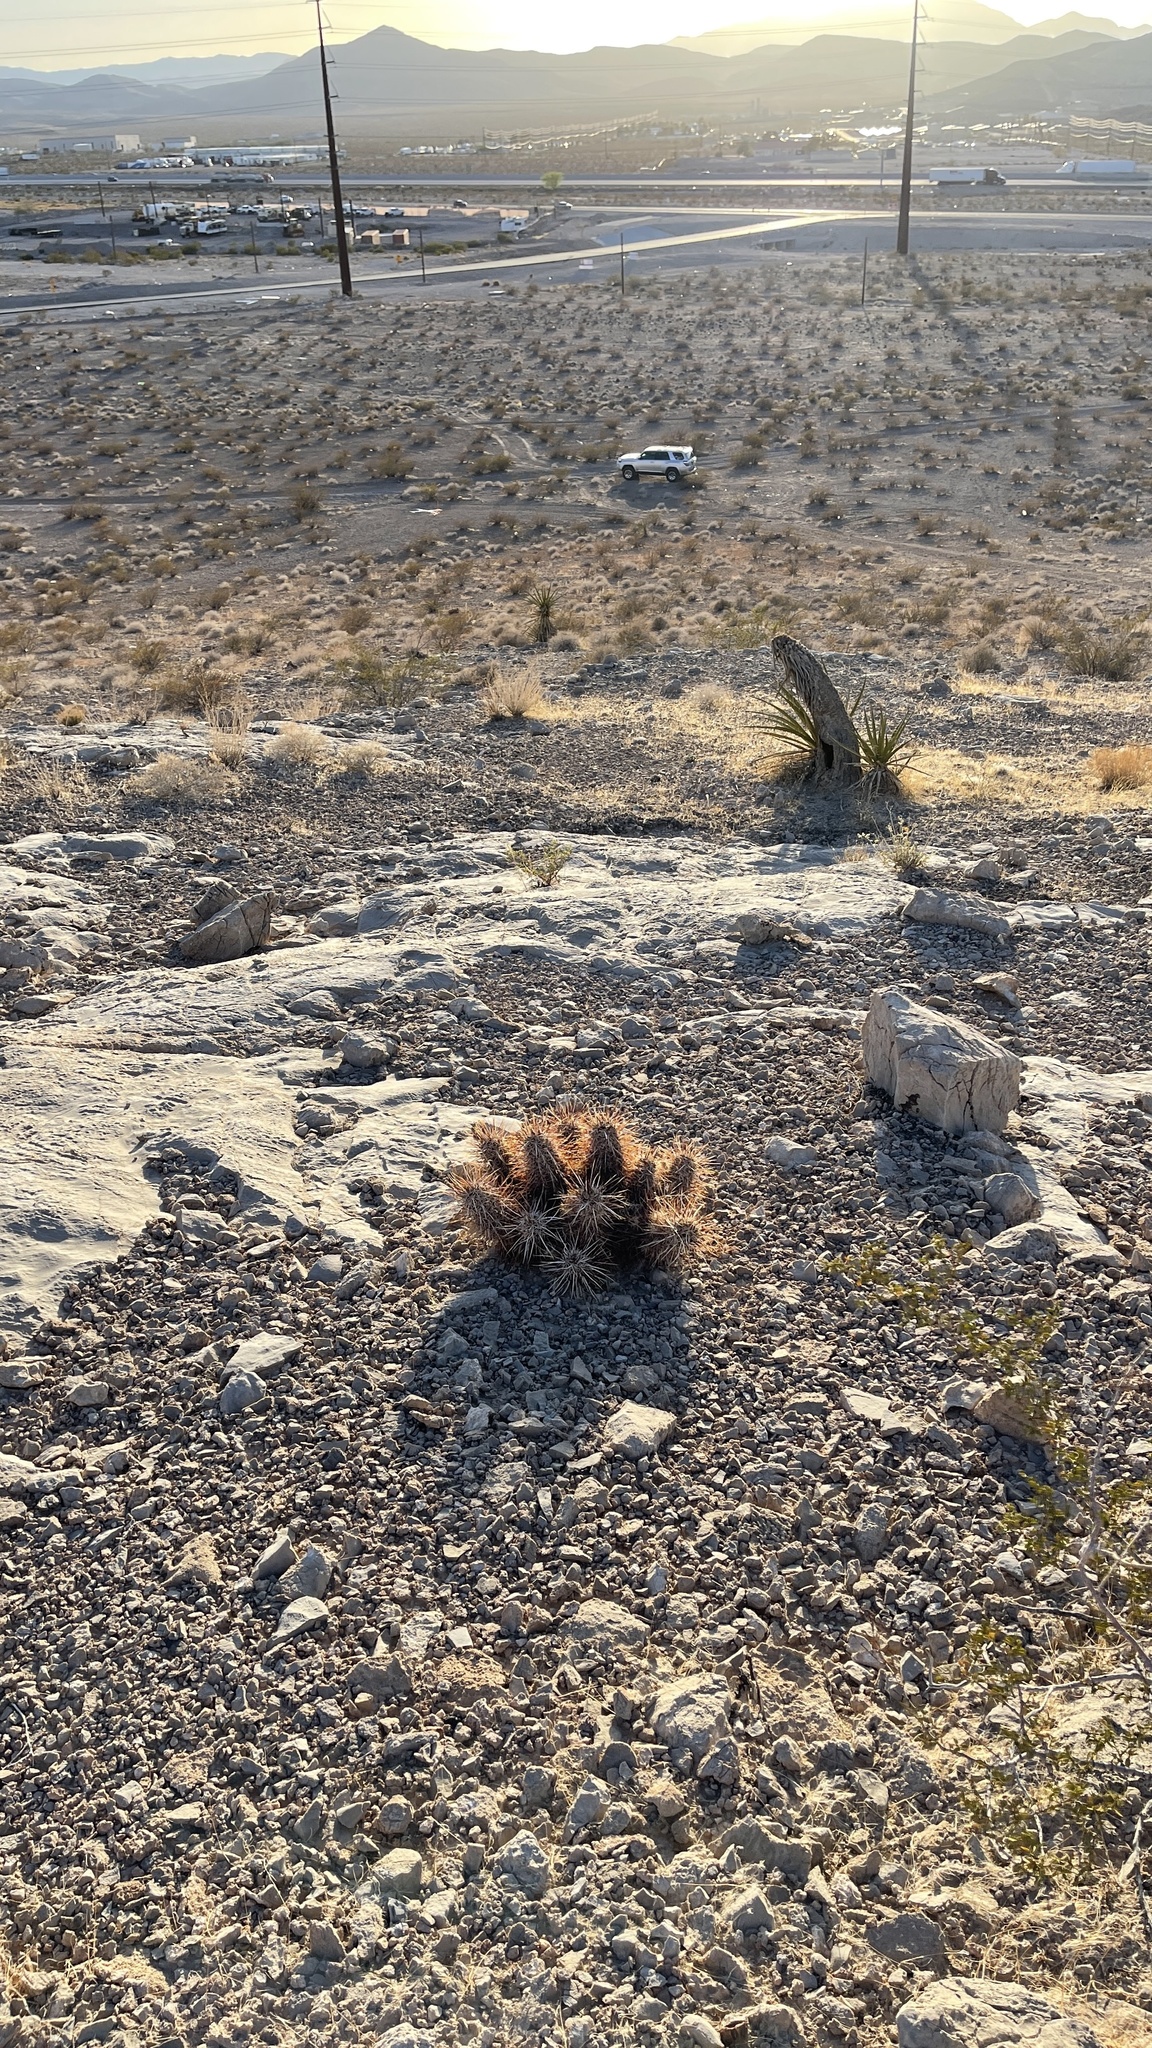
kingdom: Plantae
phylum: Tracheophyta
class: Magnoliopsida
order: Caryophyllales
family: Cactaceae
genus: Echinocereus
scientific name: Echinocereus engelmannii
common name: Engelmann's hedgehog cactus
